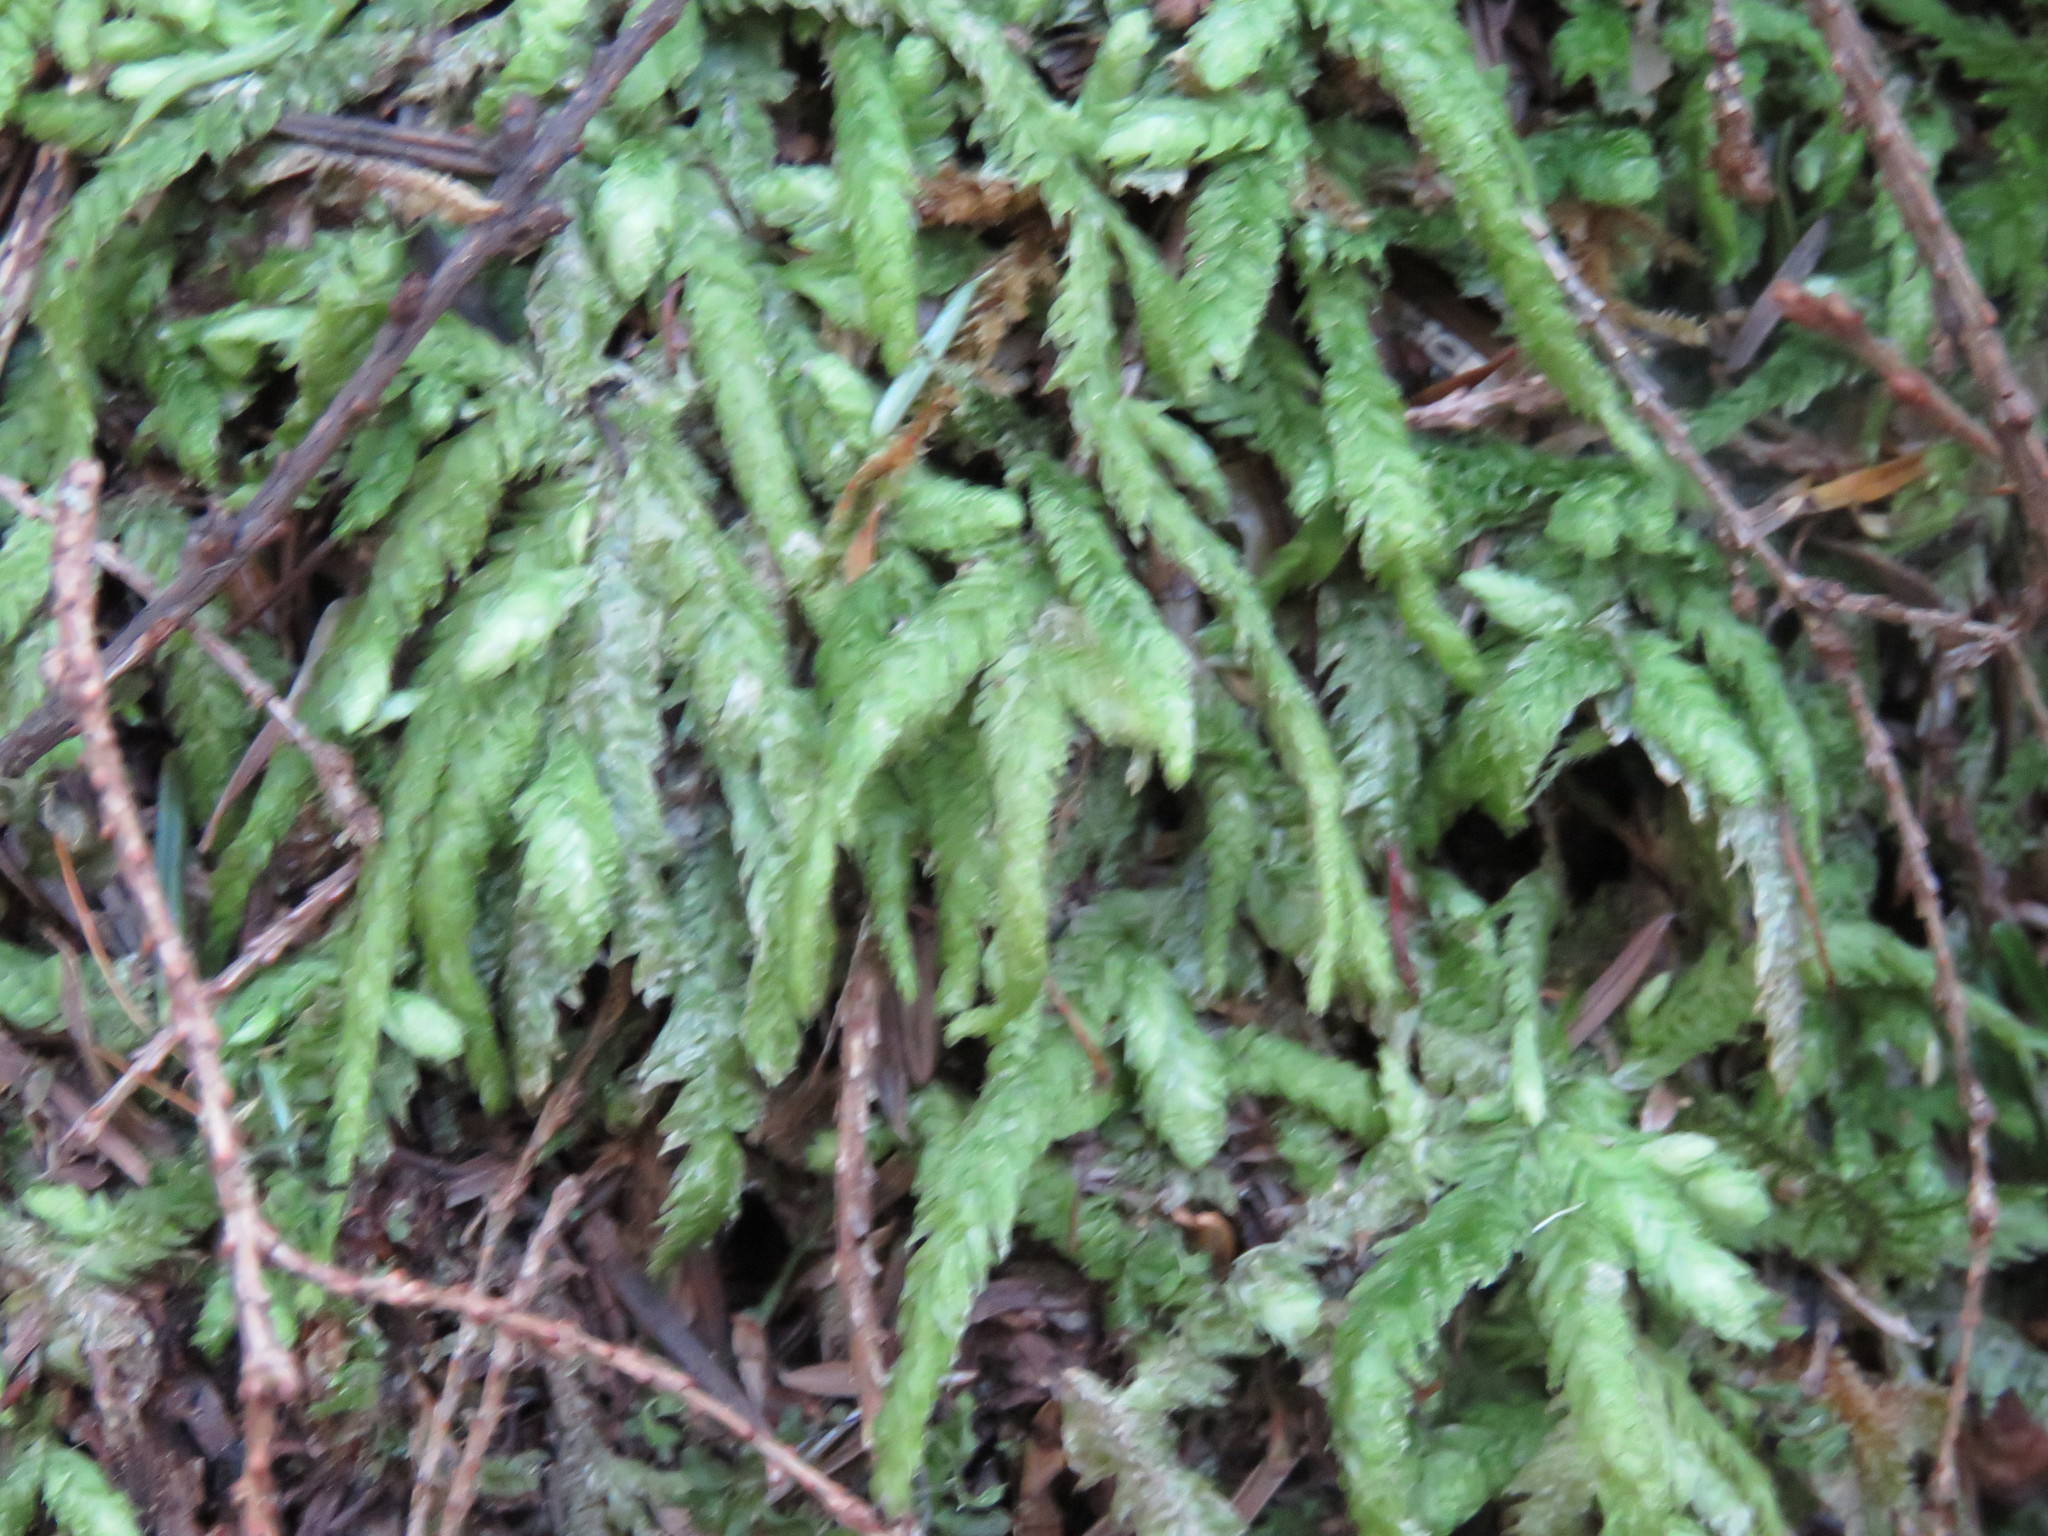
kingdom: Plantae
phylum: Bryophyta
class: Bryopsida
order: Hypnales
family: Plagiotheciaceae
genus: Plagiothecium
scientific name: Plagiothecium undulatum
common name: Waved silk-moss
